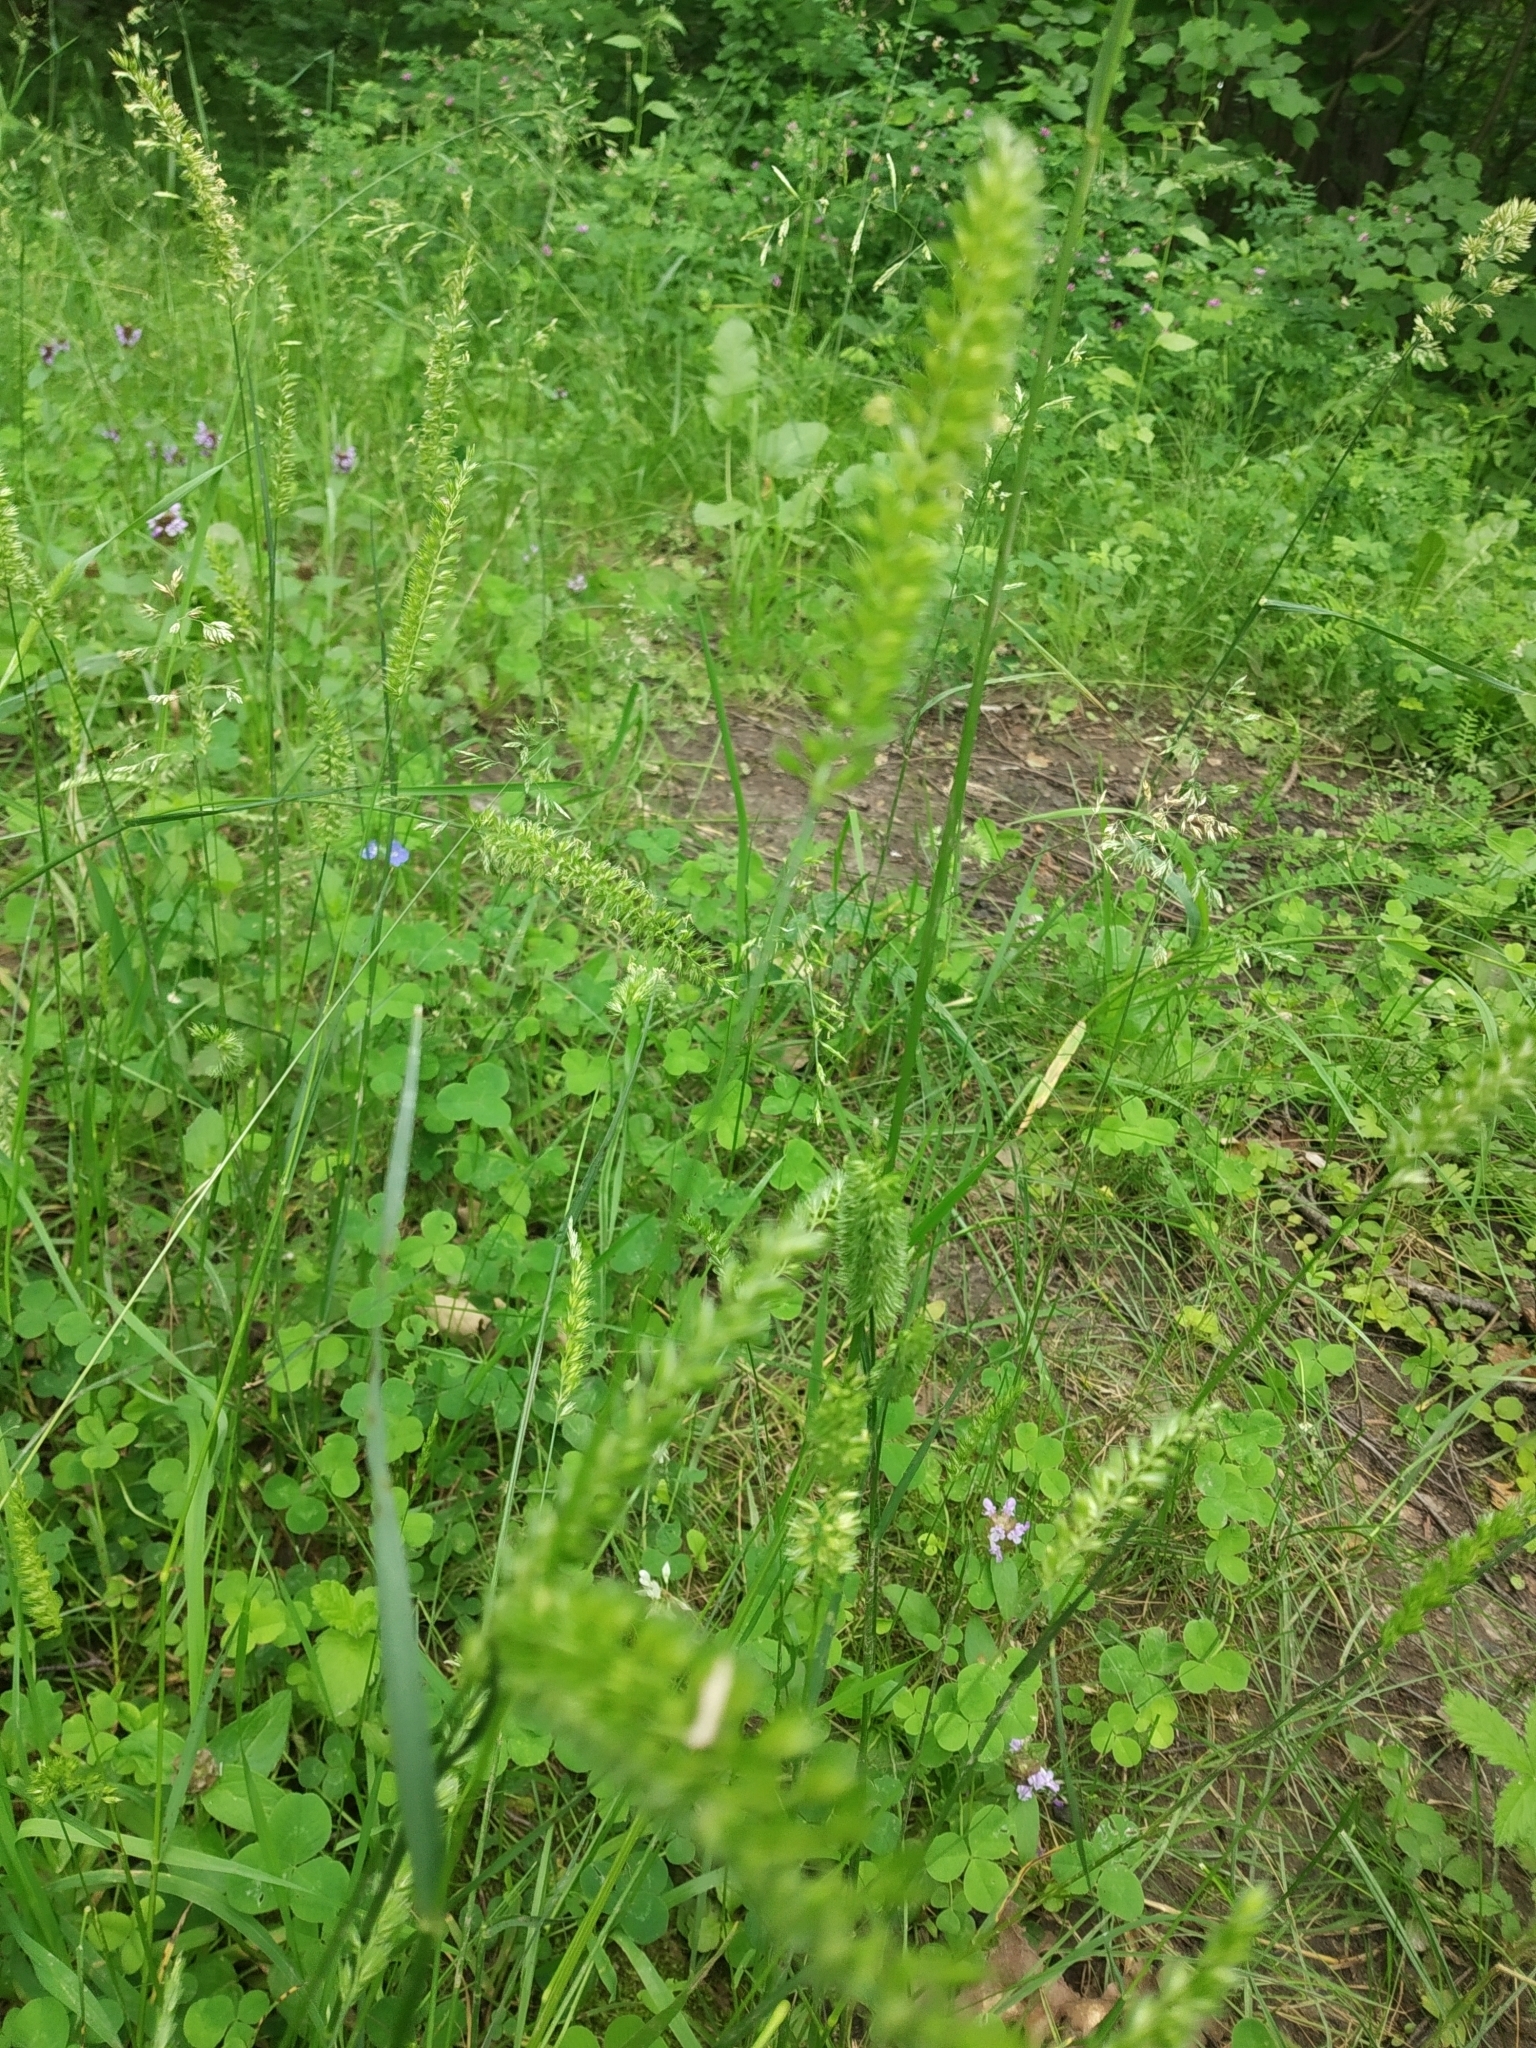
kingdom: Plantae
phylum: Tracheophyta
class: Liliopsida
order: Poales
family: Poaceae
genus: Cynosurus
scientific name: Cynosurus cristatus
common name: Crested dog's-tail
